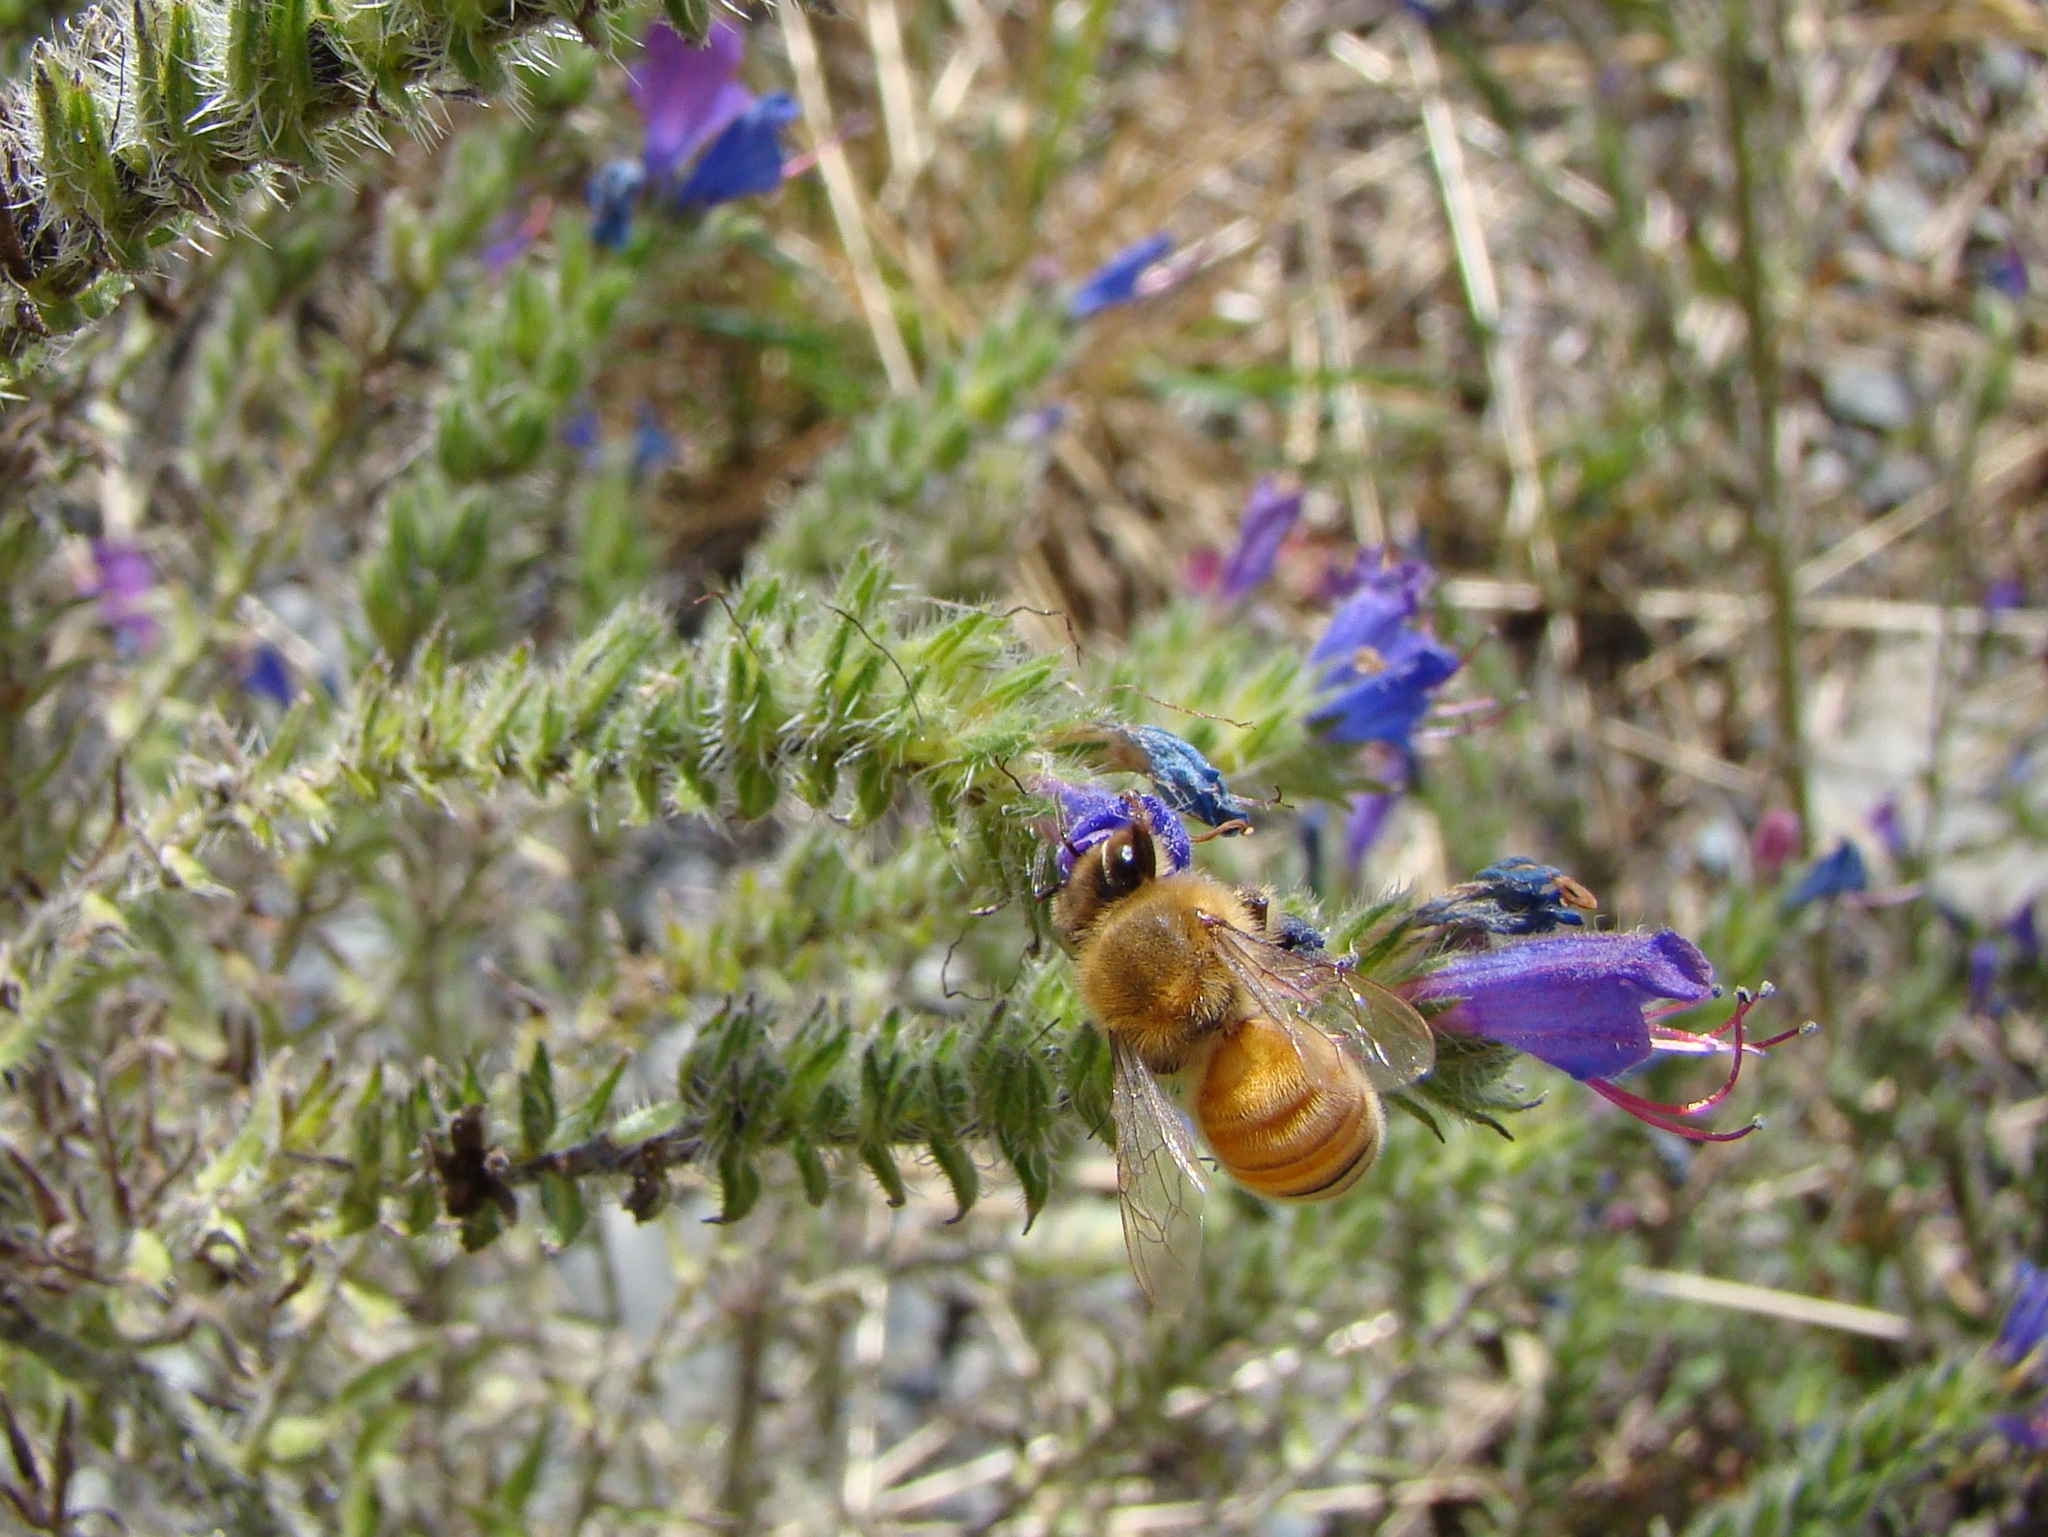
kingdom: Animalia
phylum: Arthropoda
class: Insecta
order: Hymenoptera
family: Apidae
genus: Apis
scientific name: Apis mellifera
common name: Honey bee
